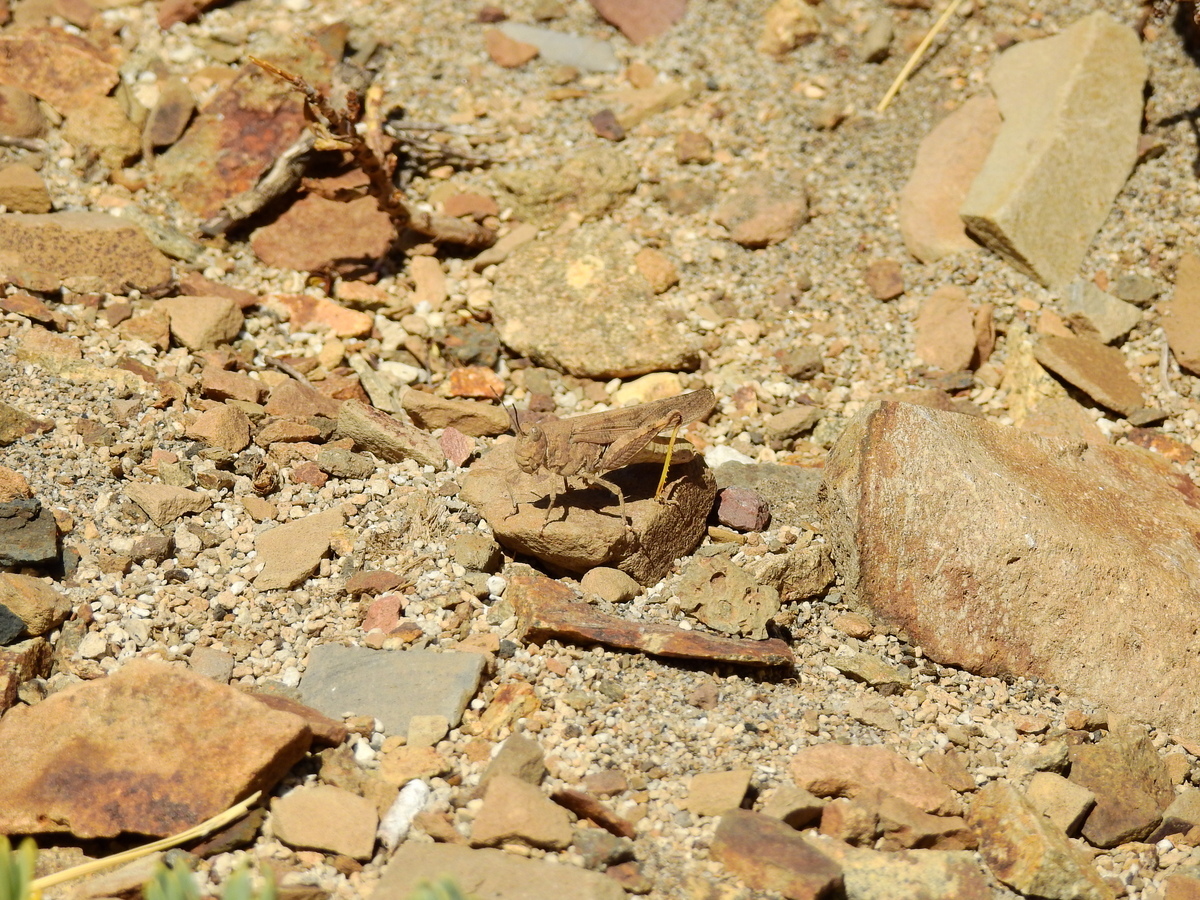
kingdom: Animalia
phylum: Arthropoda
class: Insecta
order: Orthoptera
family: Acrididae
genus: Trimerotropis
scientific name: Trimerotropis pallidipennis
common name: Pallid-winged grasshopper
